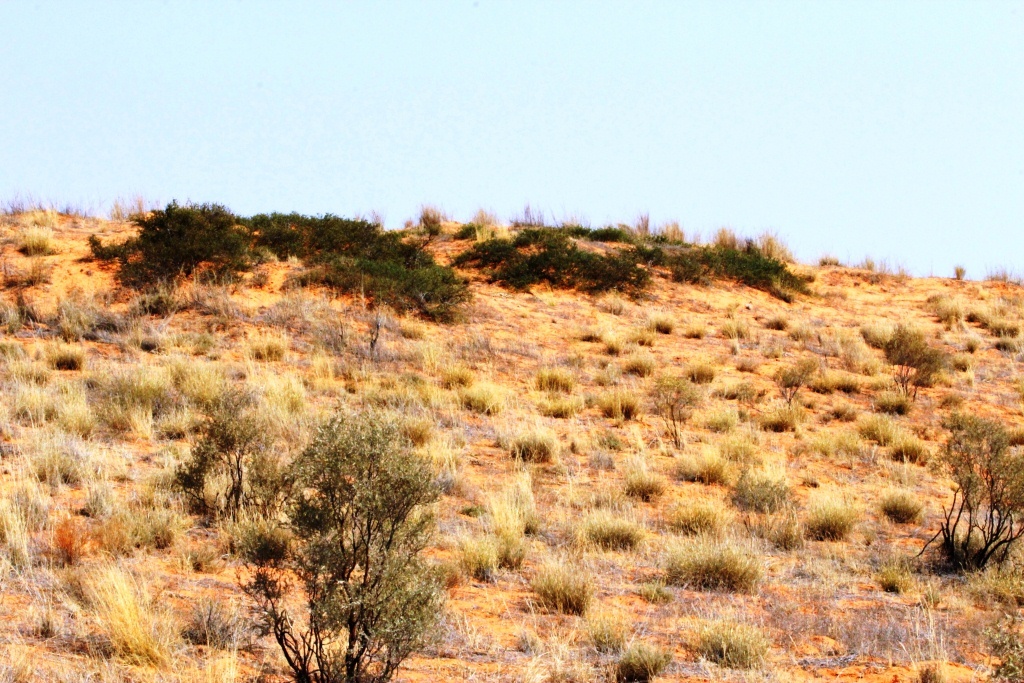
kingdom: Plantae
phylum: Tracheophyta
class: Magnoliopsida
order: Fabales
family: Fabaceae
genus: Vachellia
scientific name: Vachellia hebeclada
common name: Candle thorn
